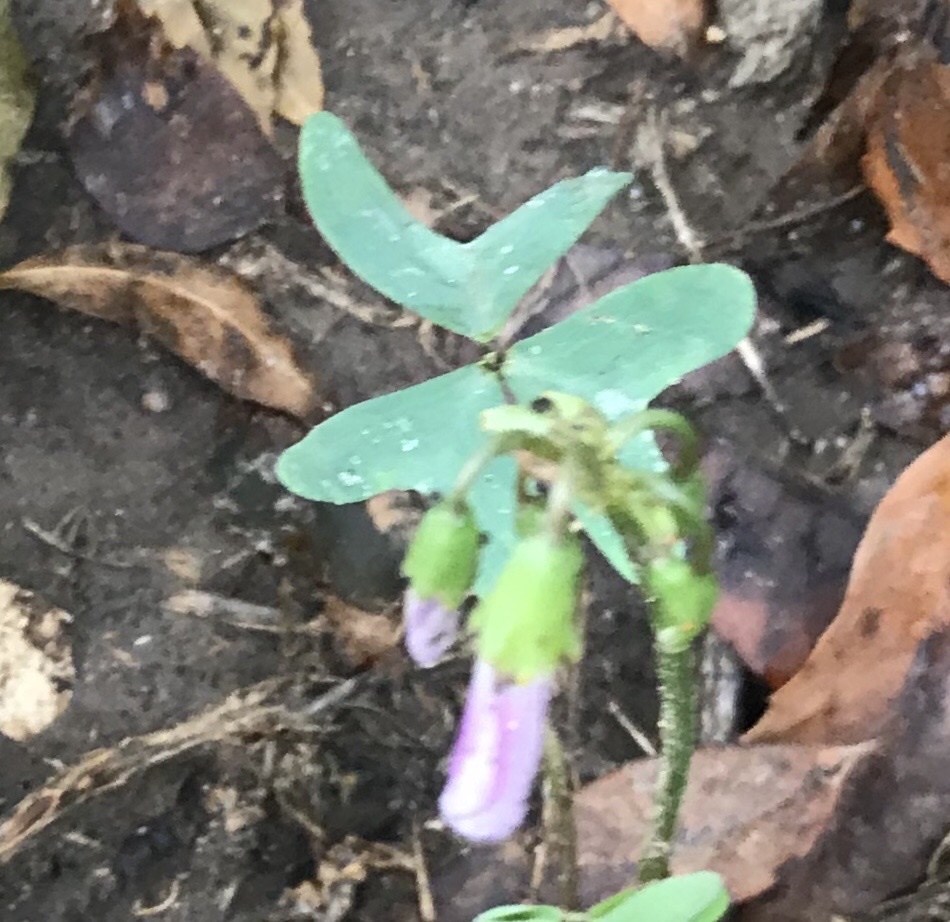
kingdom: Plantae
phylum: Tracheophyta
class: Magnoliopsida
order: Oxalidales
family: Oxalidaceae
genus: Oxalis
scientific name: Oxalis drummondii
